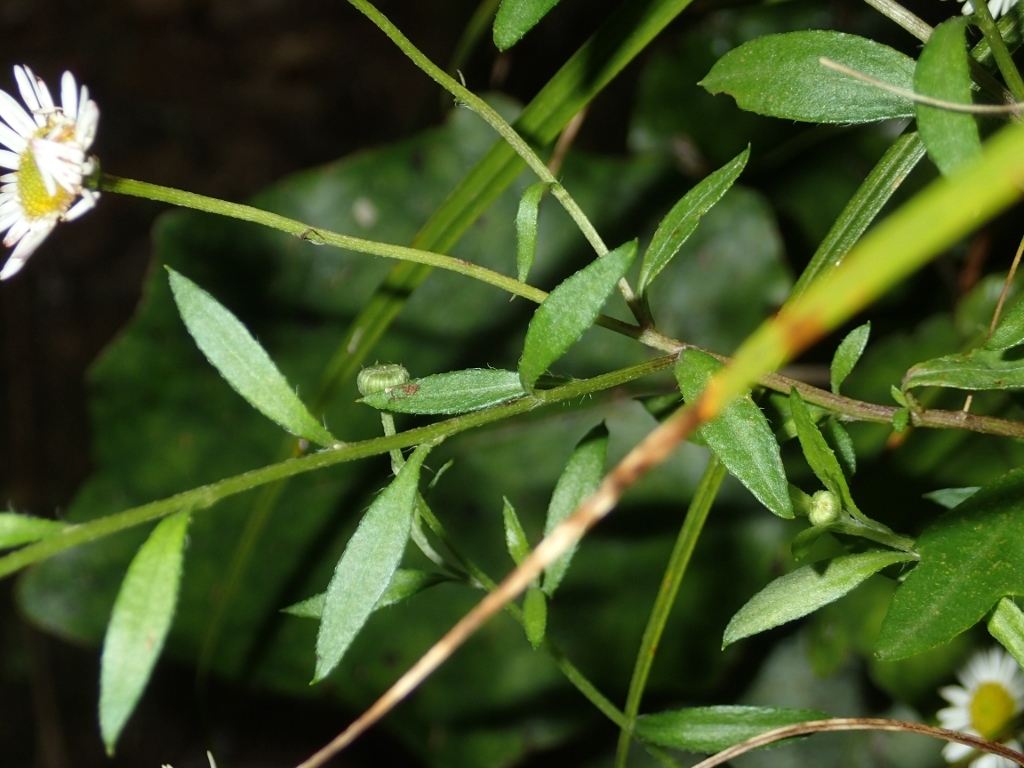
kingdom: Plantae
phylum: Tracheophyta
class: Magnoliopsida
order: Asterales
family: Asteraceae
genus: Erigeron
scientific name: Erigeron karvinskianus
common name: Mexican fleabane
